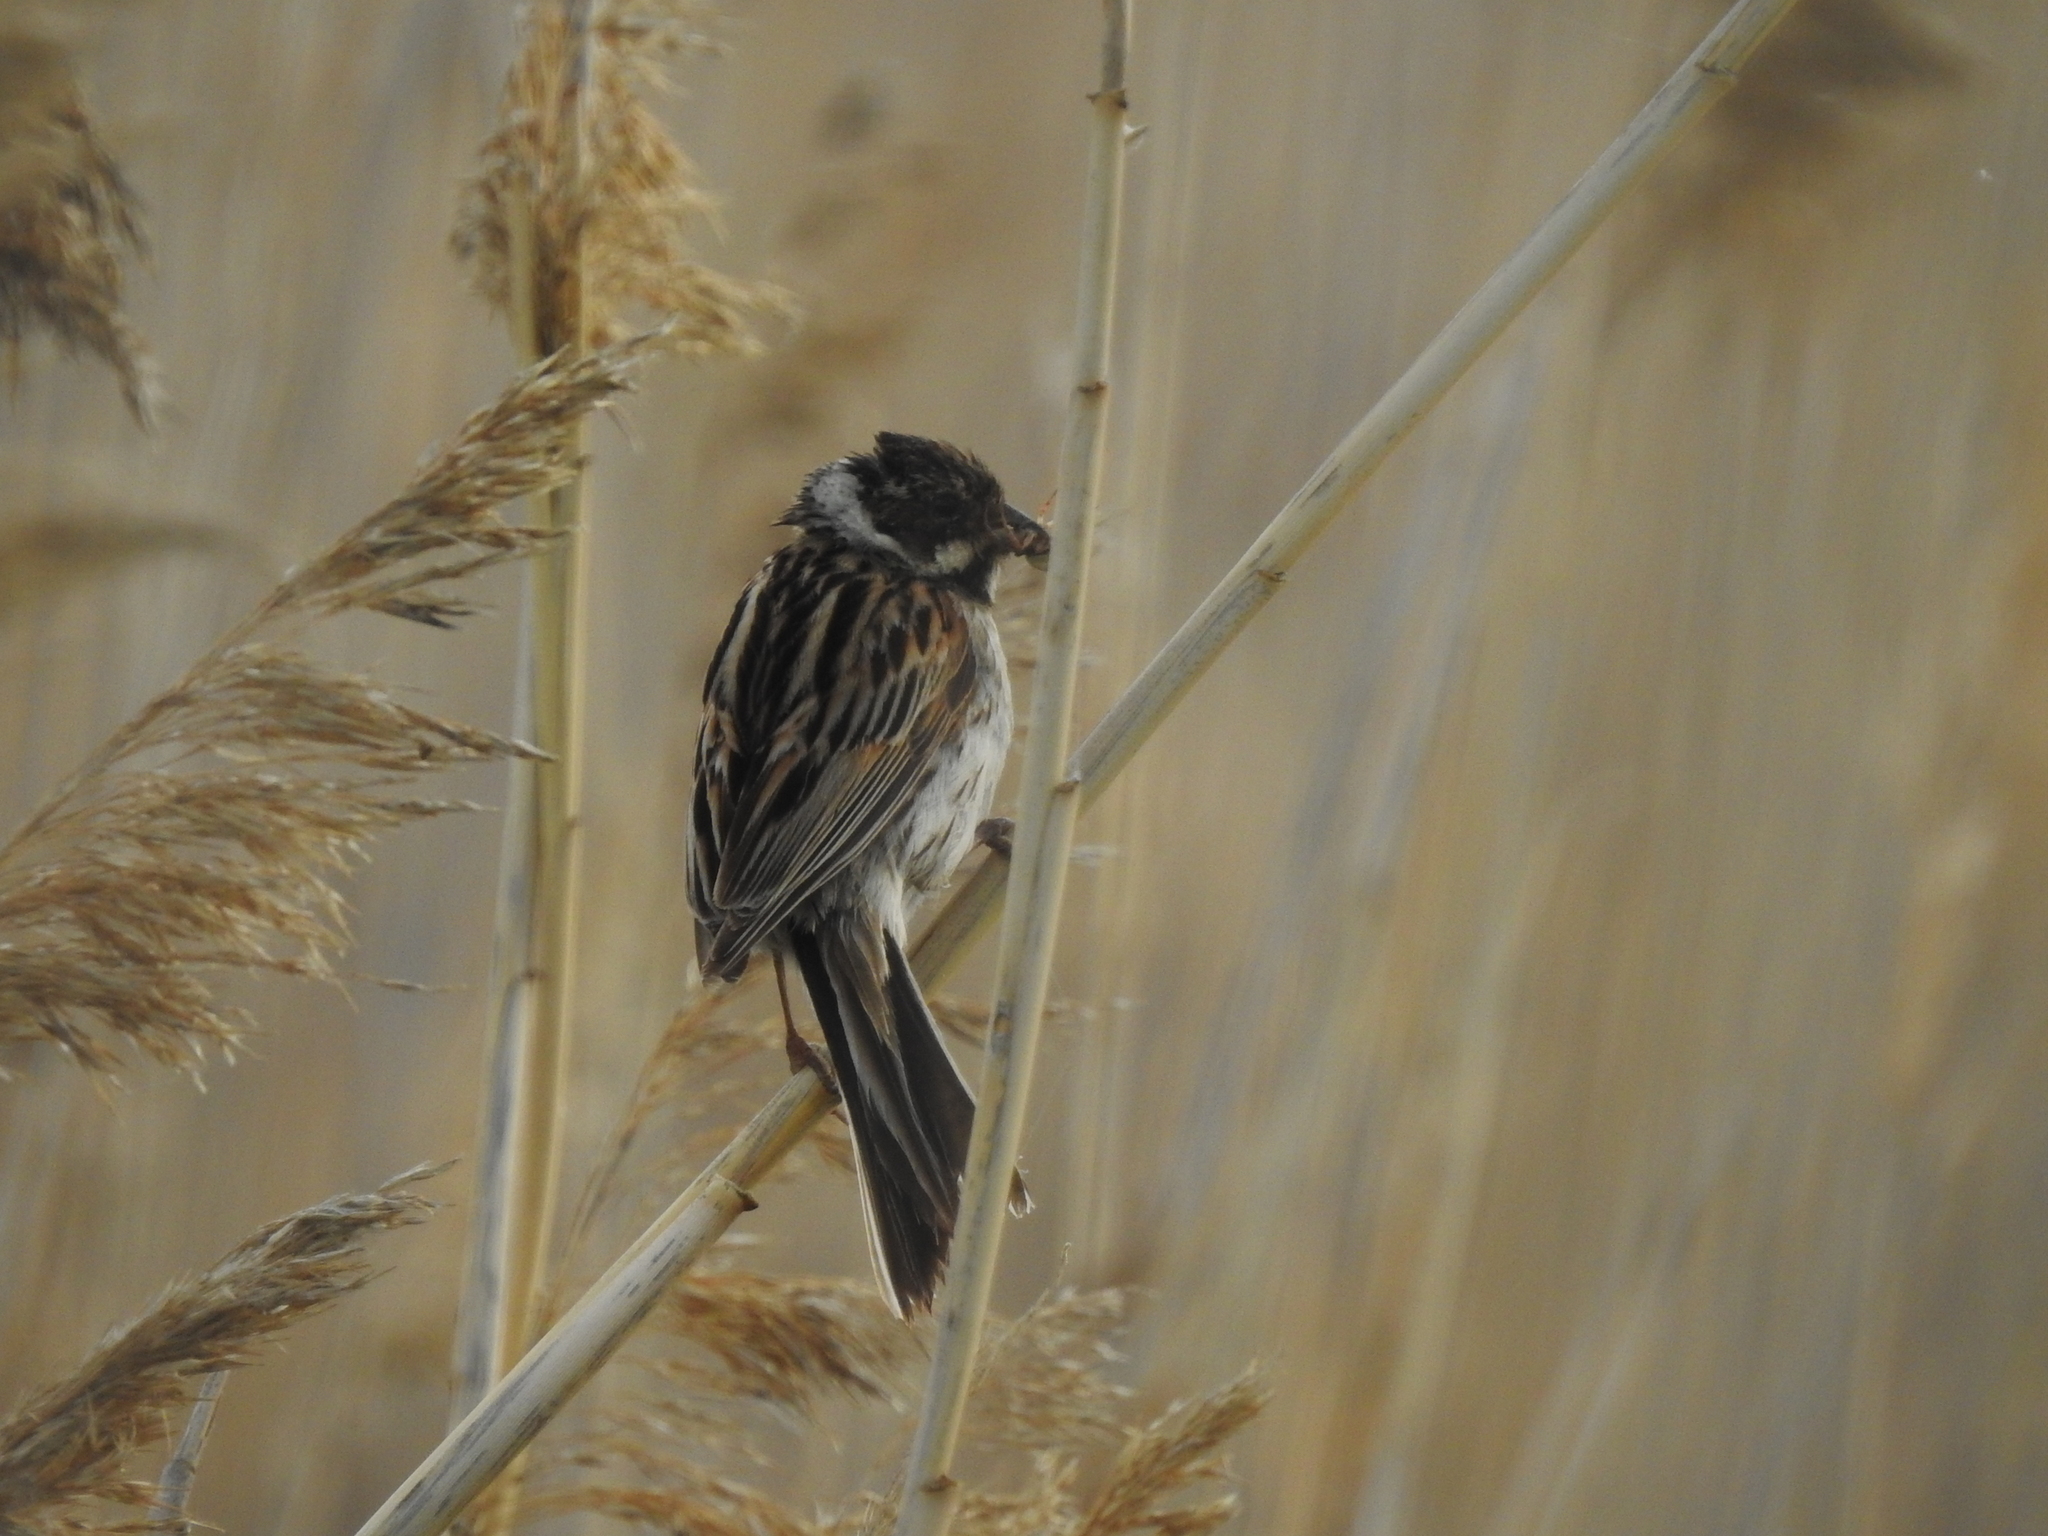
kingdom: Animalia
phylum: Chordata
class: Aves
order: Passeriformes
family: Emberizidae
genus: Emberiza
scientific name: Emberiza schoeniclus
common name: Reed bunting
